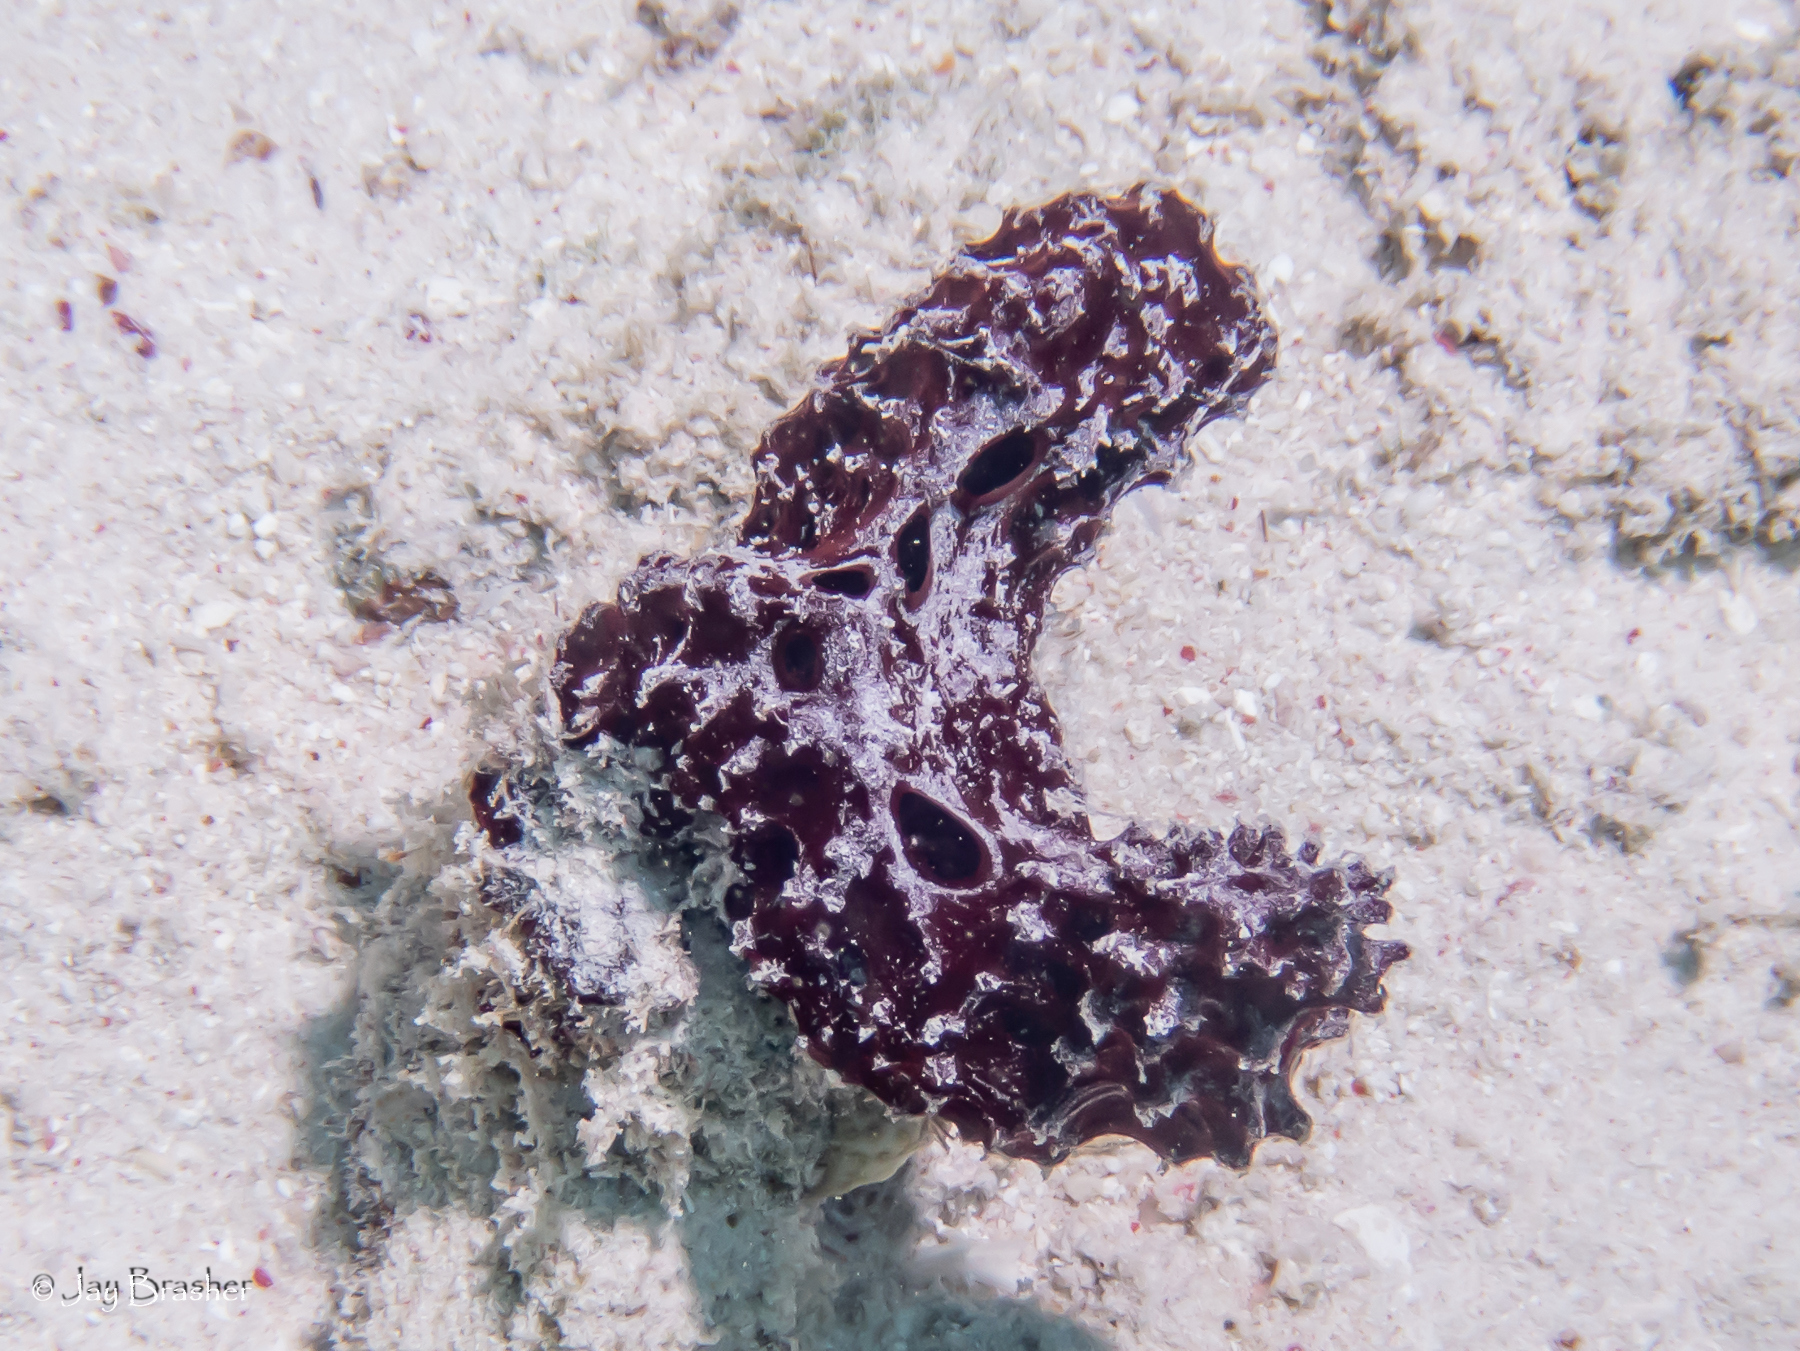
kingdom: Animalia
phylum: Porifera
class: Demospongiae
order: Poecilosclerida
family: Microcionidae
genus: Pandaros
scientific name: Pandaros acanthifolium
